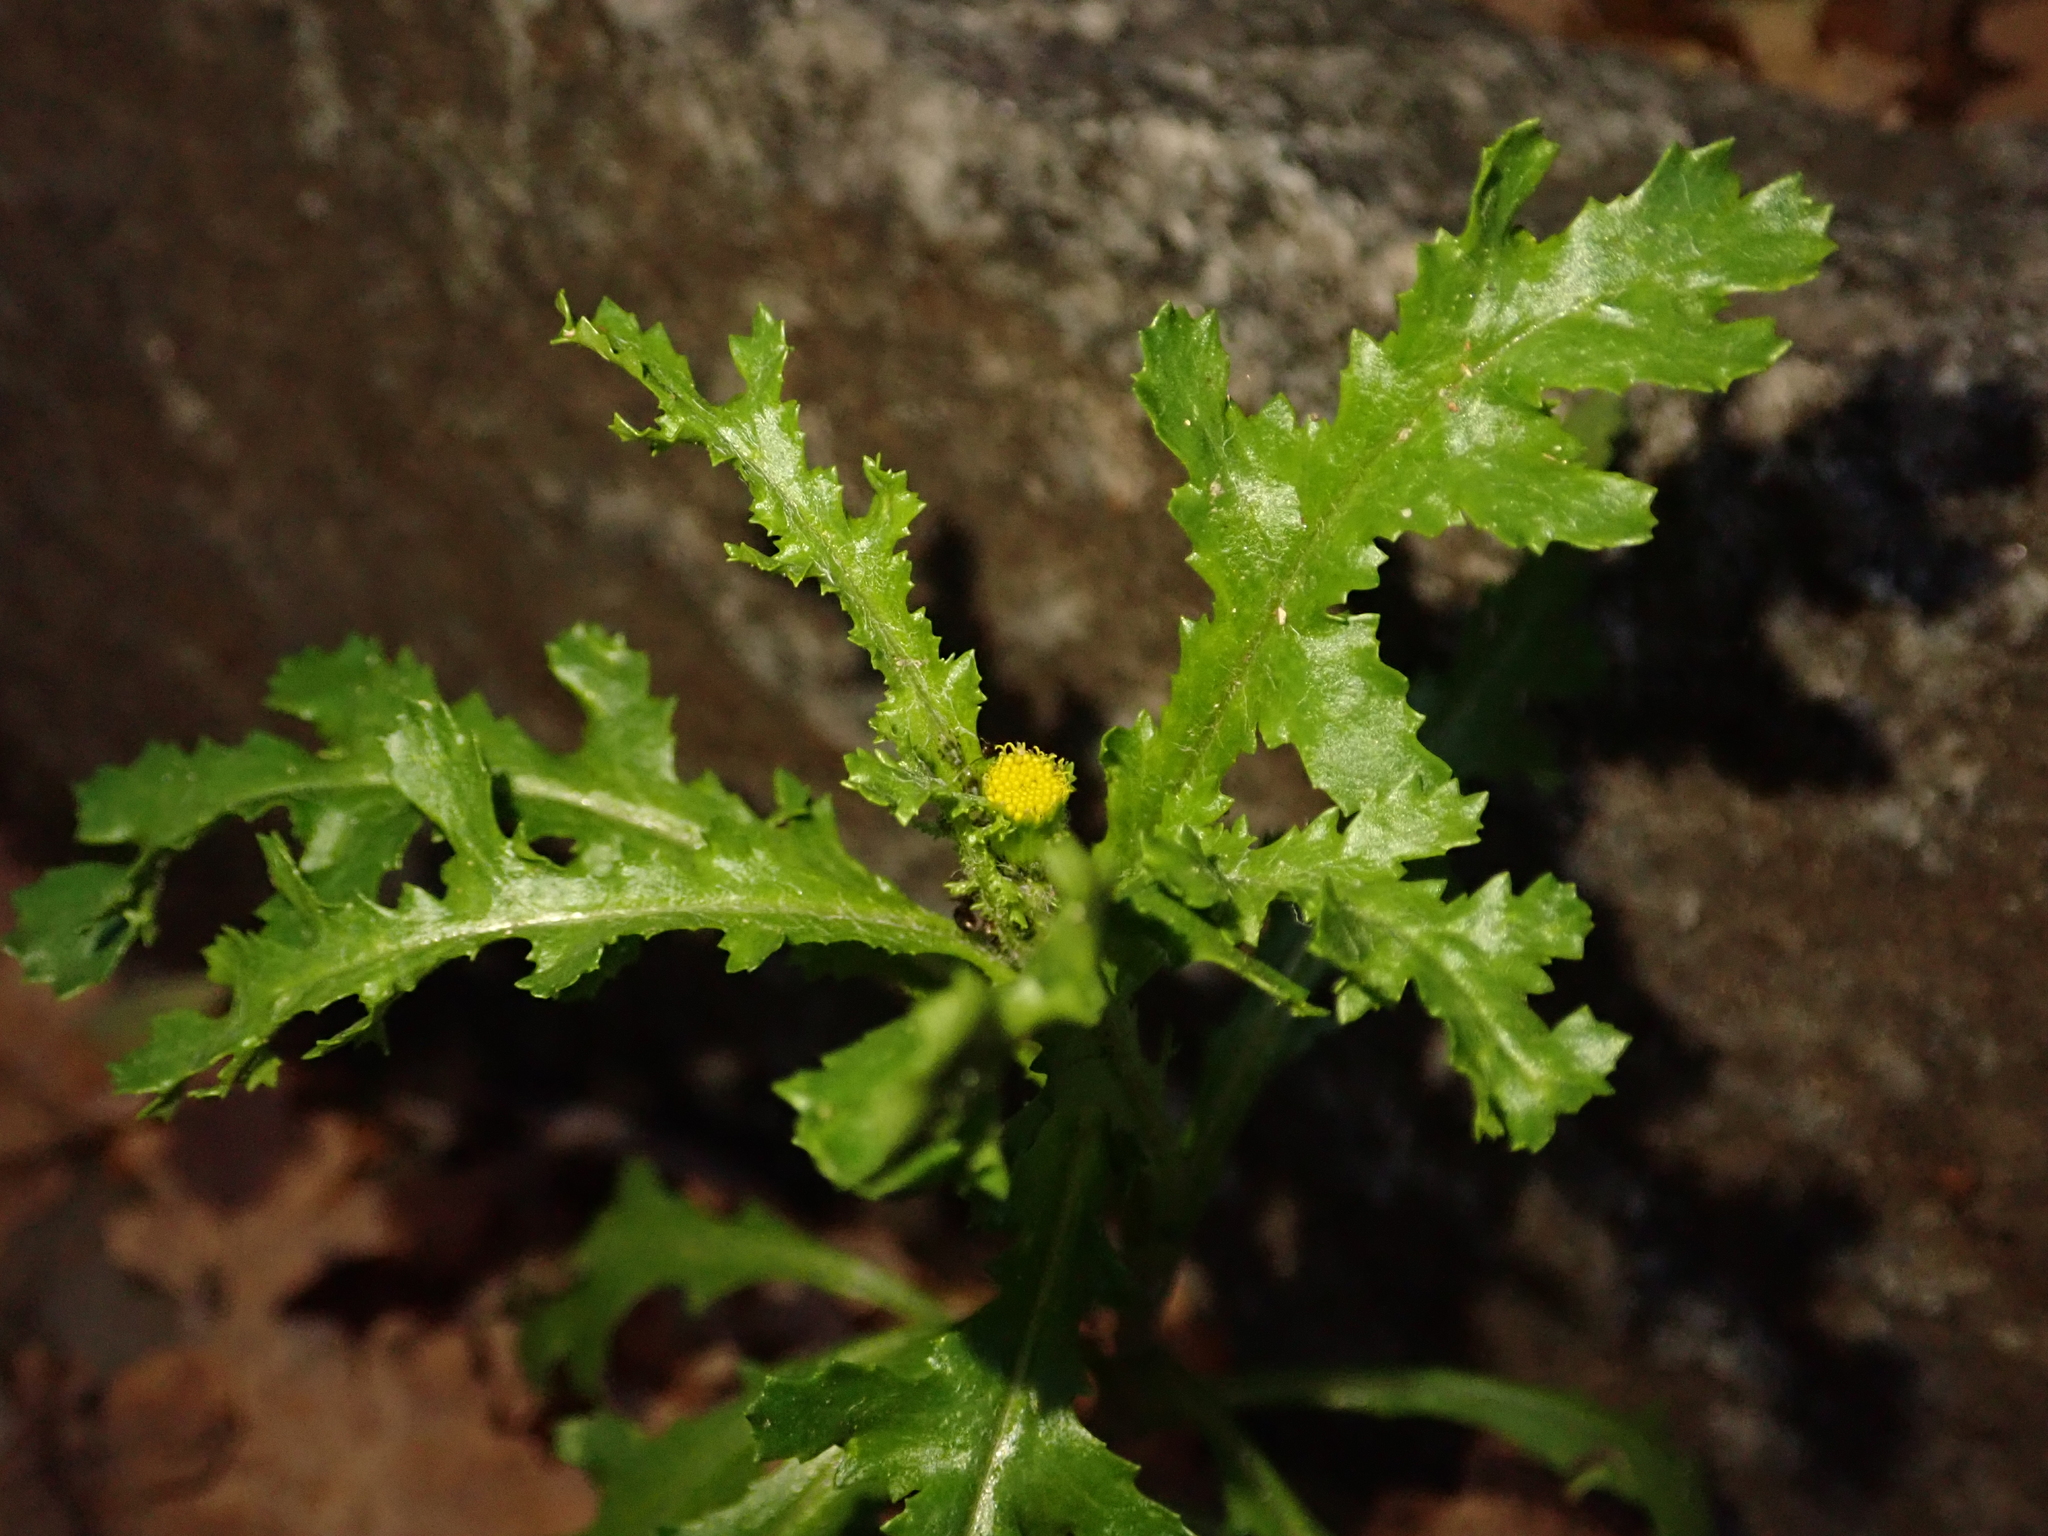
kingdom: Plantae
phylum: Tracheophyta
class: Magnoliopsida
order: Asterales
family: Asteraceae
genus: Senecio
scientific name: Senecio vulgaris
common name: Old-man-in-the-spring
